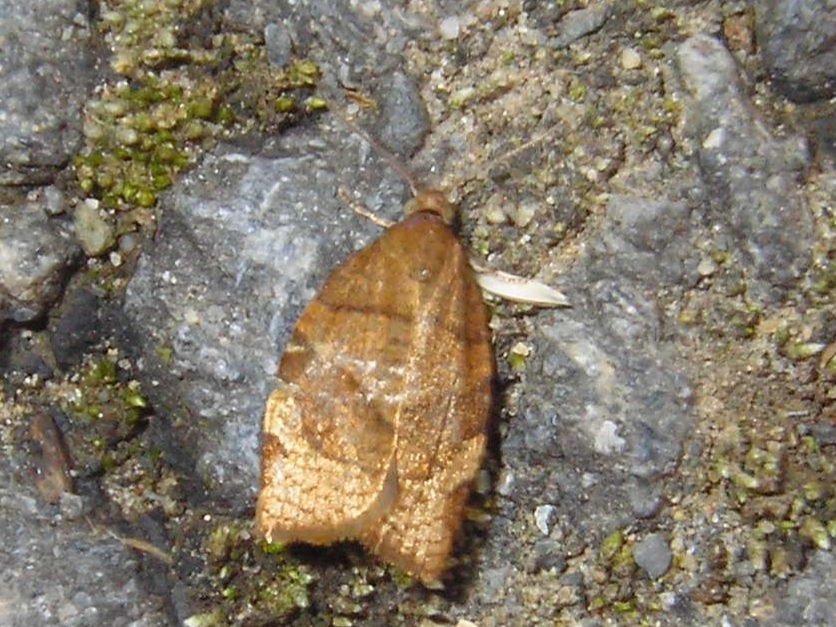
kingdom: Animalia
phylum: Arthropoda
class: Insecta
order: Lepidoptera
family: Tortricidae
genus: Pandemis
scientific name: Pandemis cerasana
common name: Barred fruit-tree tortrix
